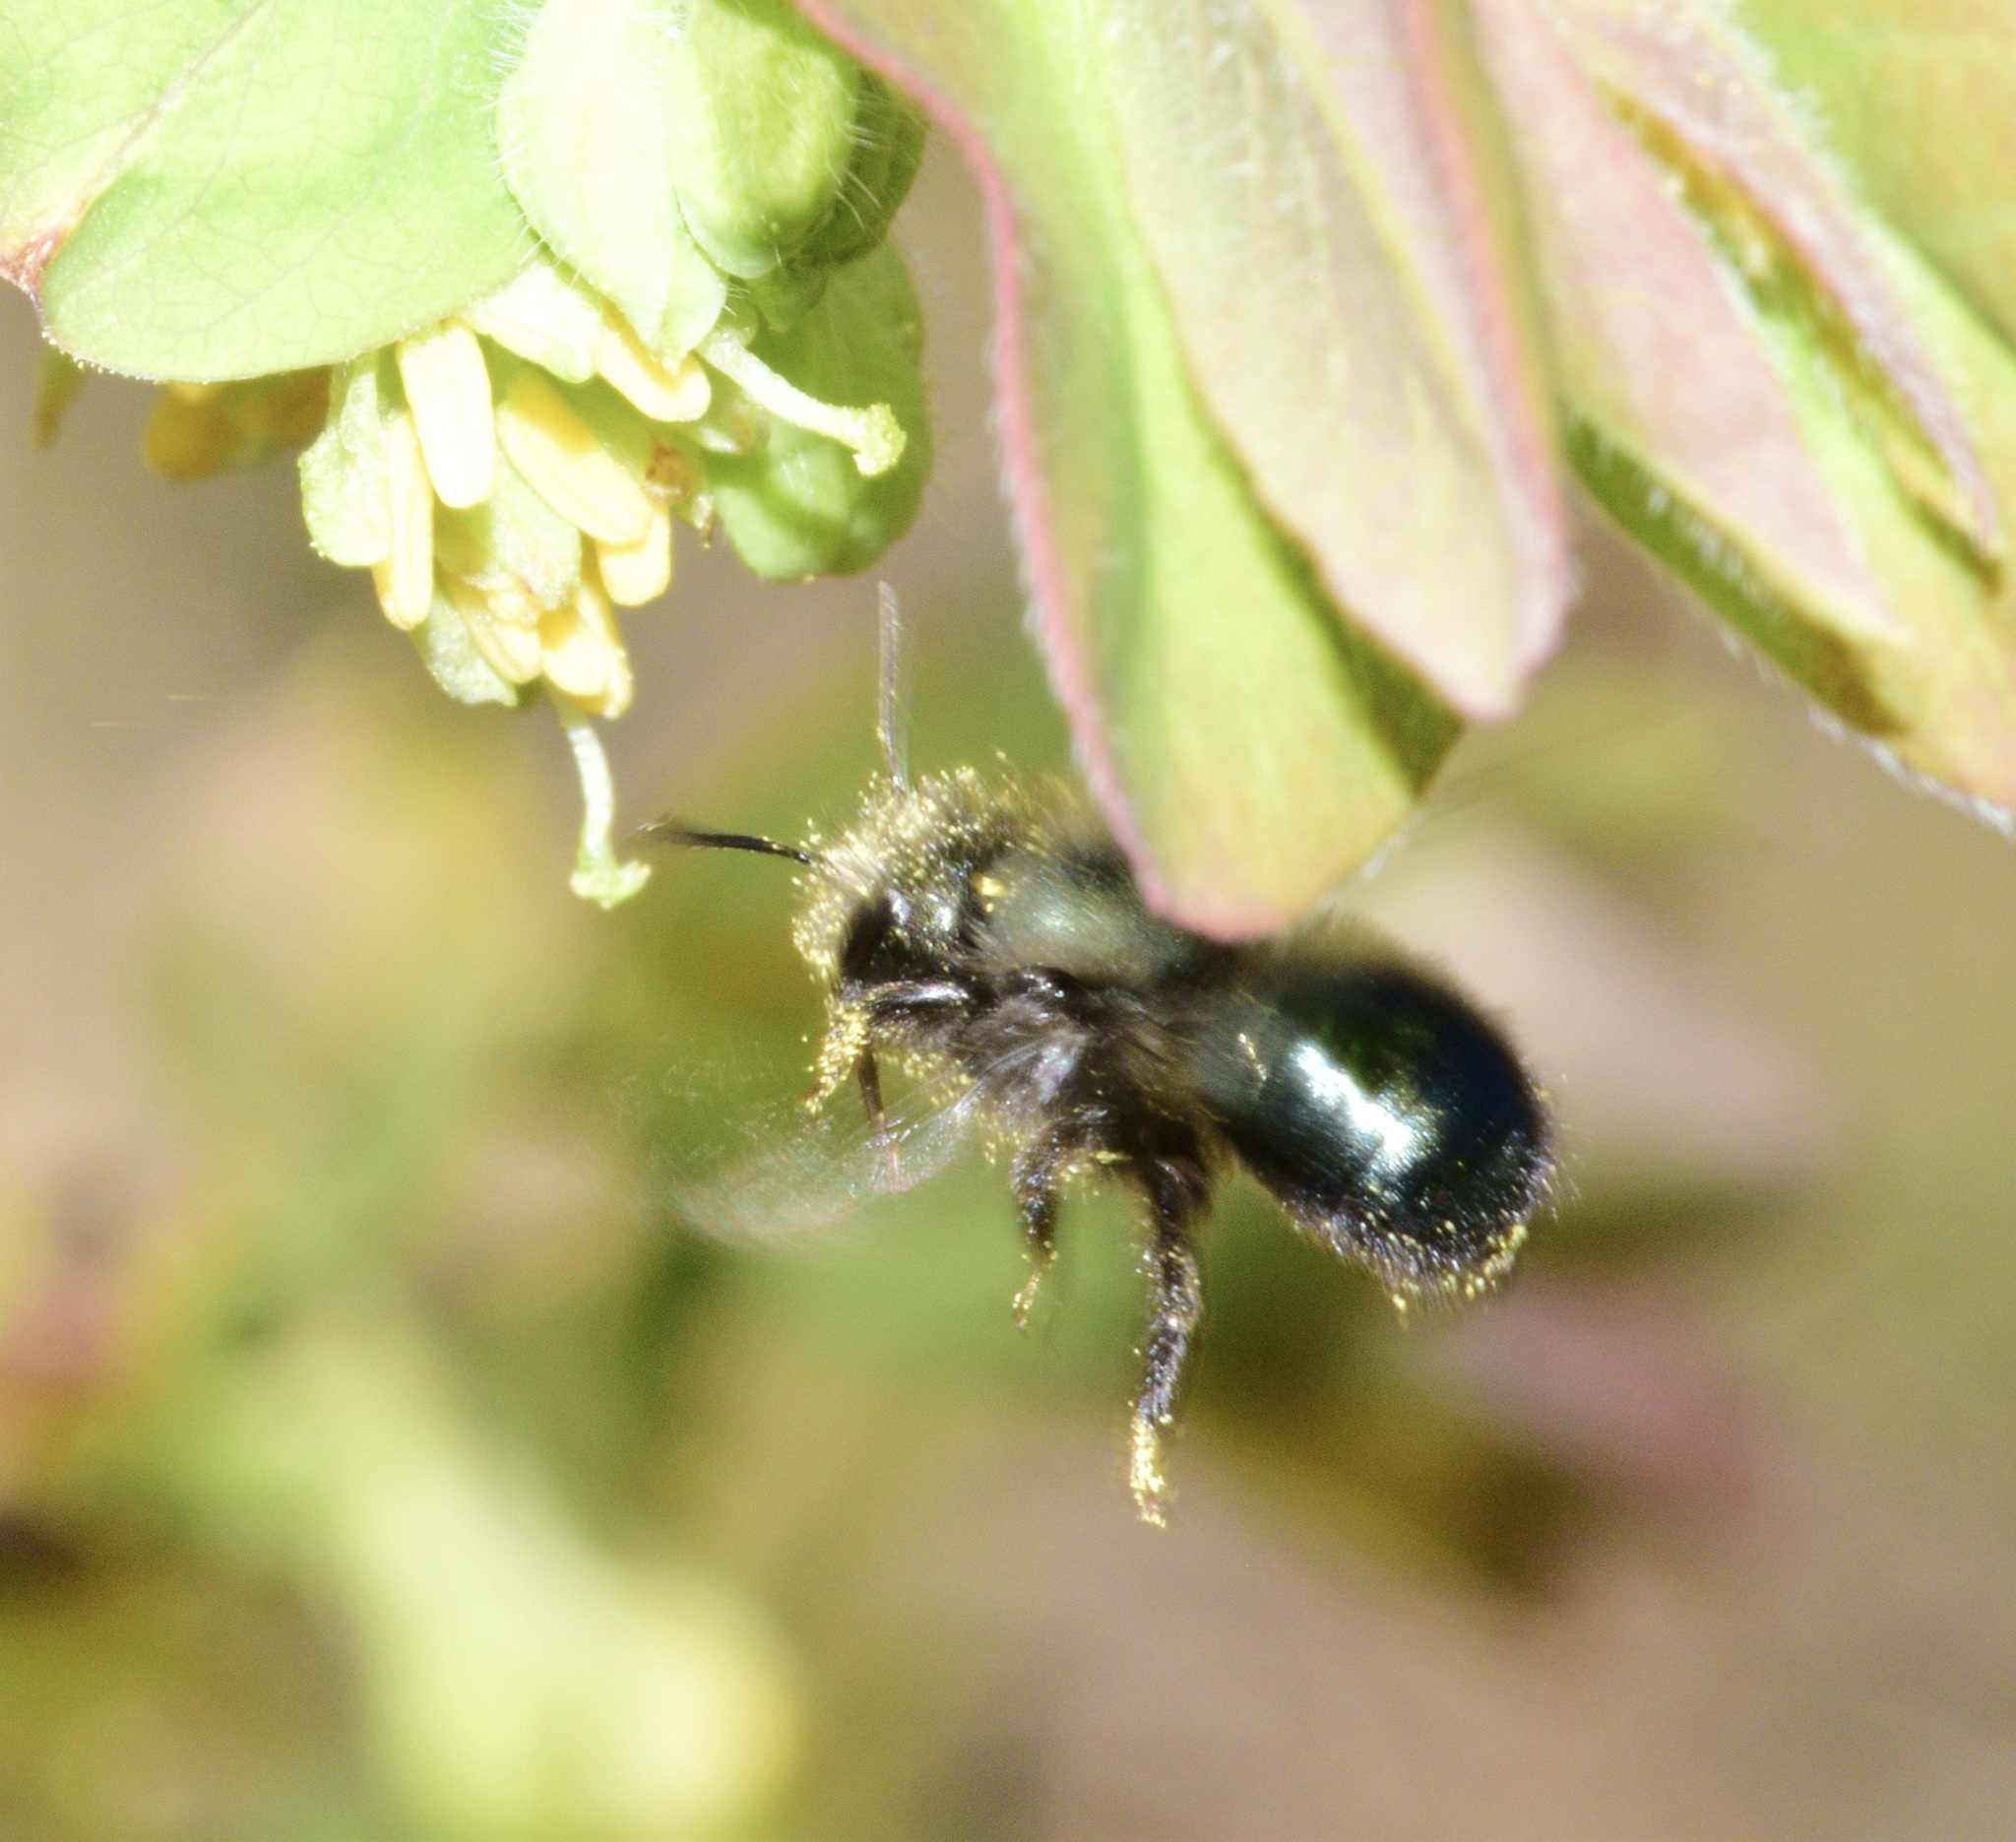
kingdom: Animalia
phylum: Arthropoda
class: Insecta
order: Hymenoptera
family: Megachilidae
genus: Osmia
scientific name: Osmia lignaria
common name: Blue orchard bee
